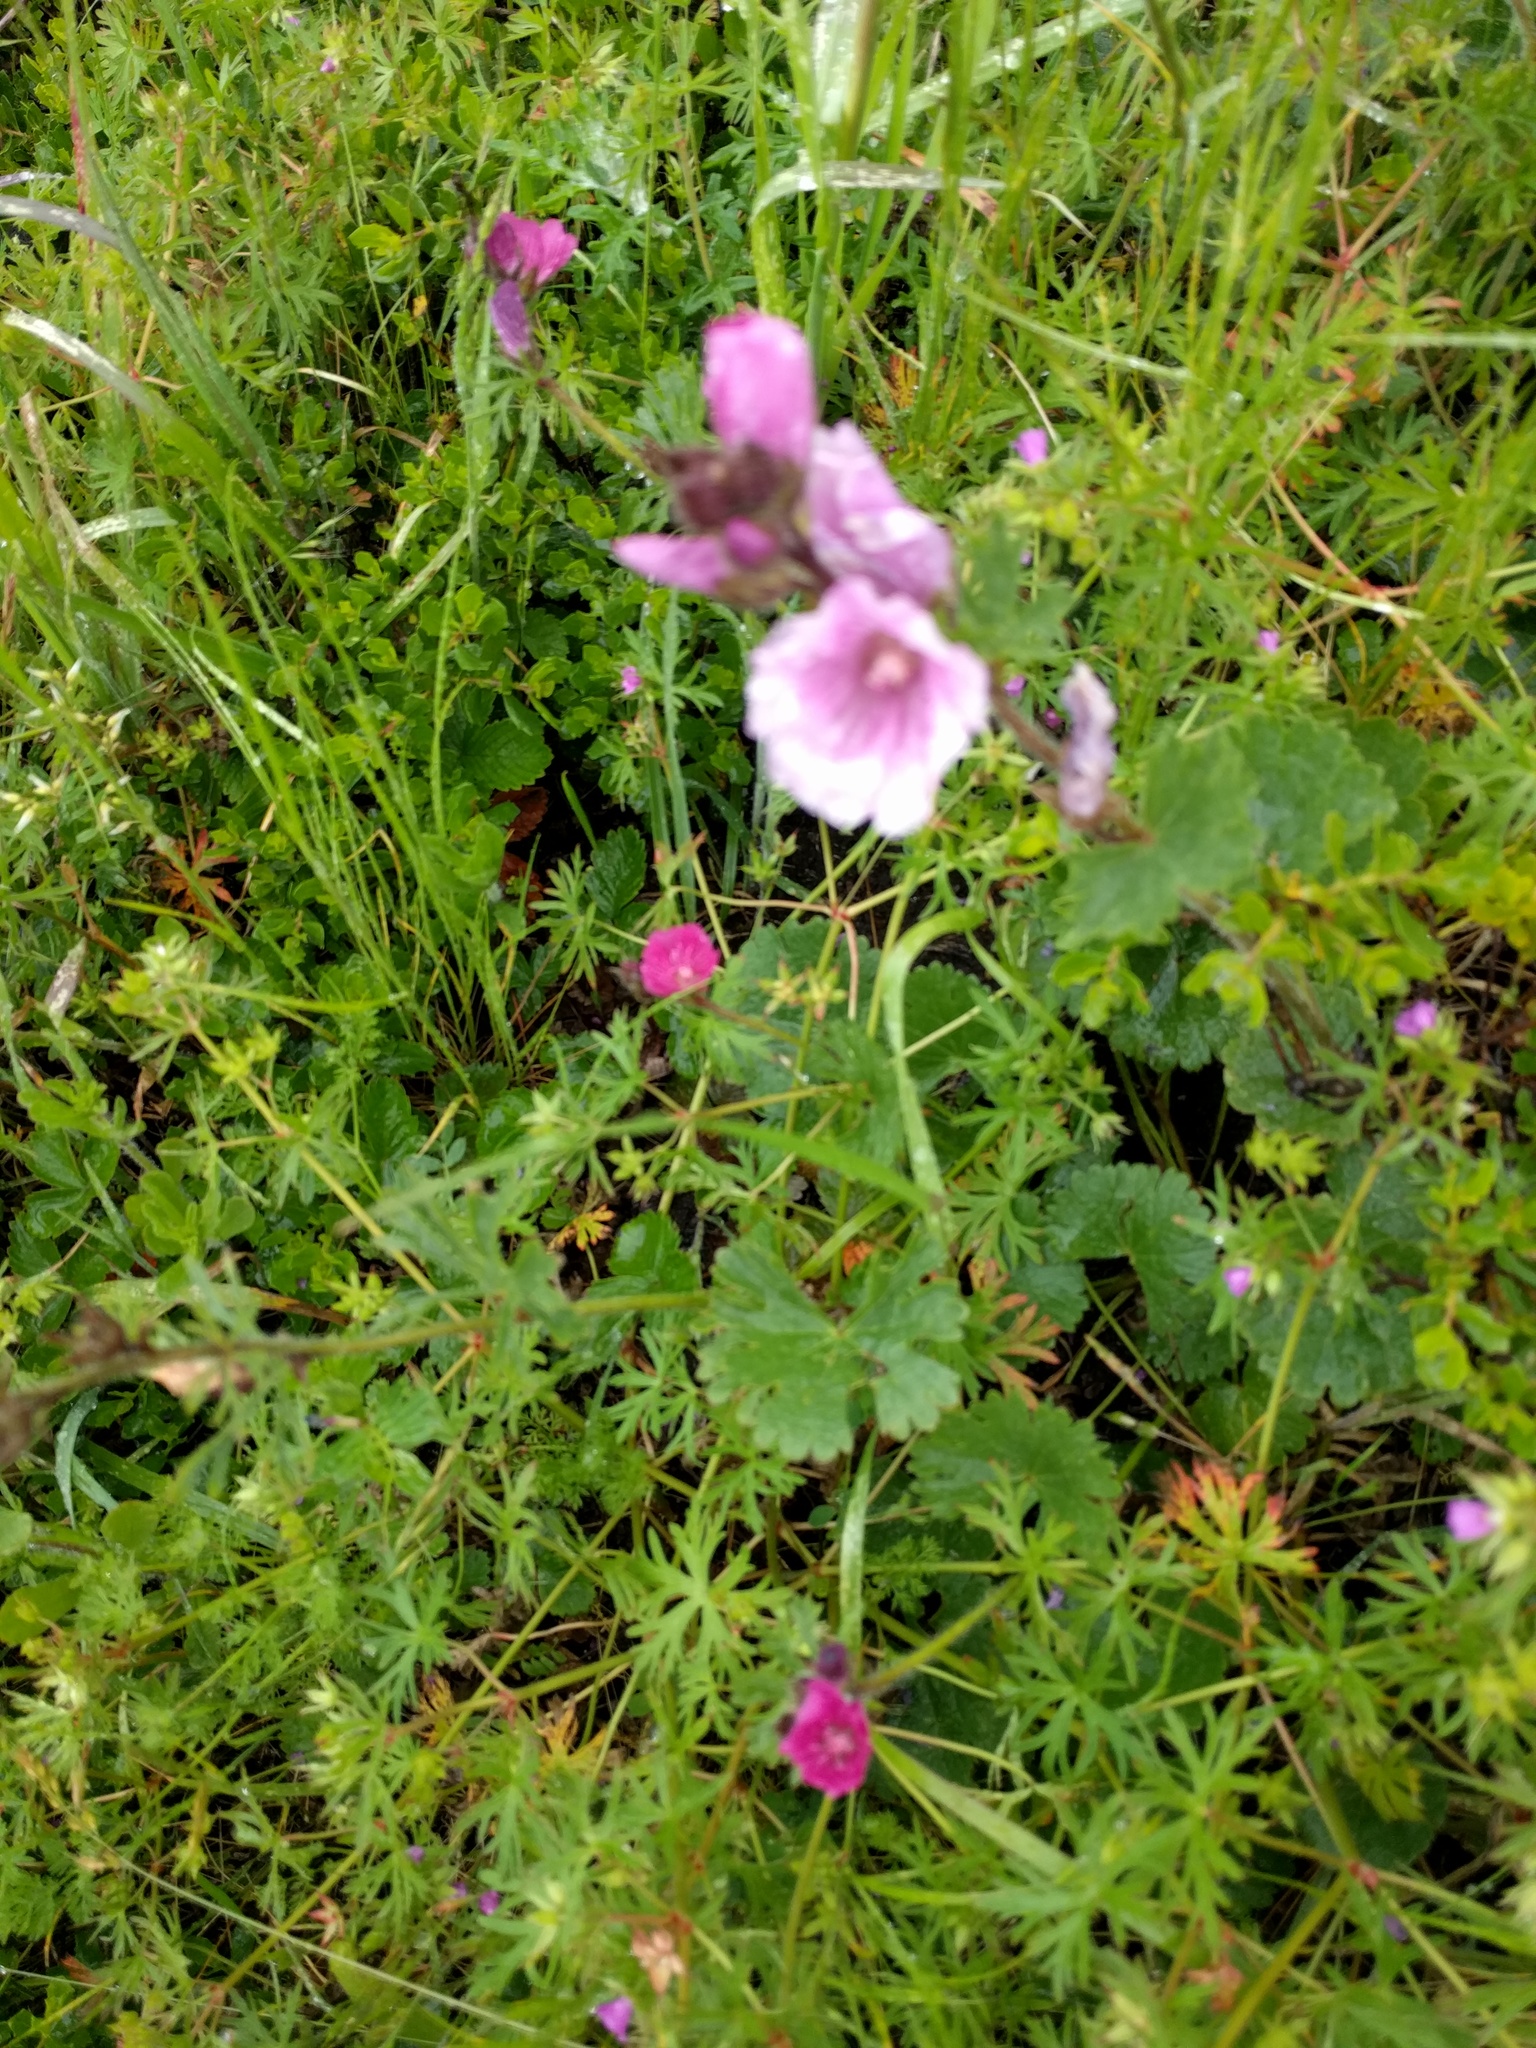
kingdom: Plantae
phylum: Tracheophyta
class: Magnoliopsida
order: Malvales
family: Malvaceae
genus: Sidalcea
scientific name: Sidalcea malviflora
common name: Greek mallow
